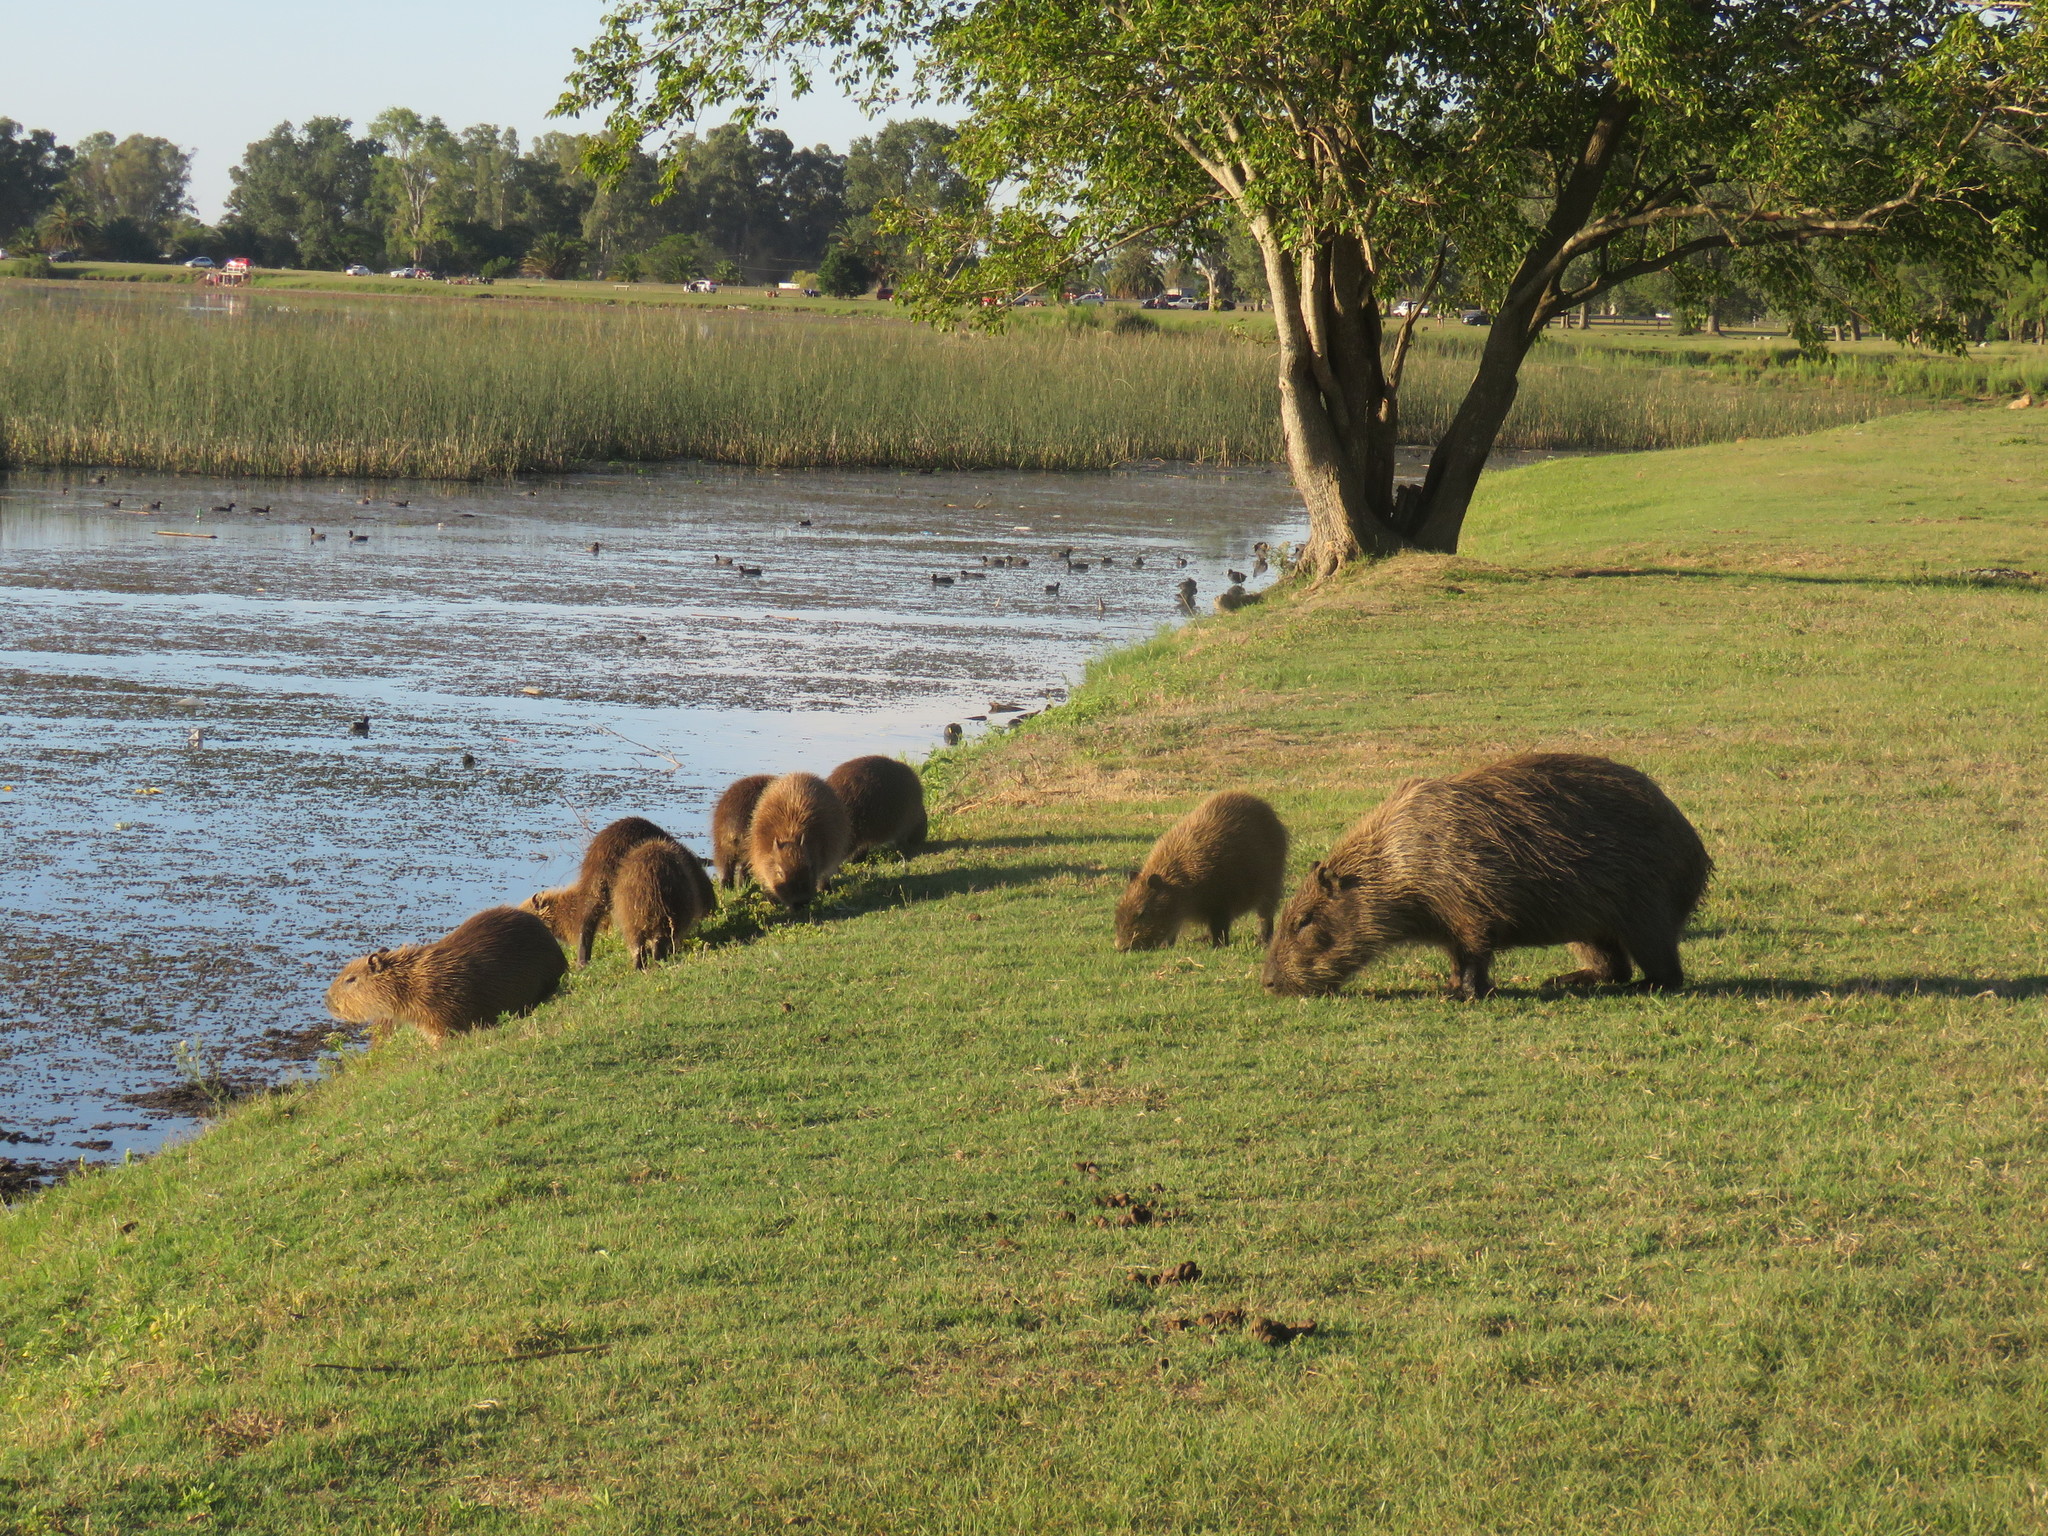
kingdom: Animalia
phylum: Chordata
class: Mammalia
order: Rodentia
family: Caviidae
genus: Hydrochoerus
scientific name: Hydrochoerus hydrochaeris
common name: Capybara
